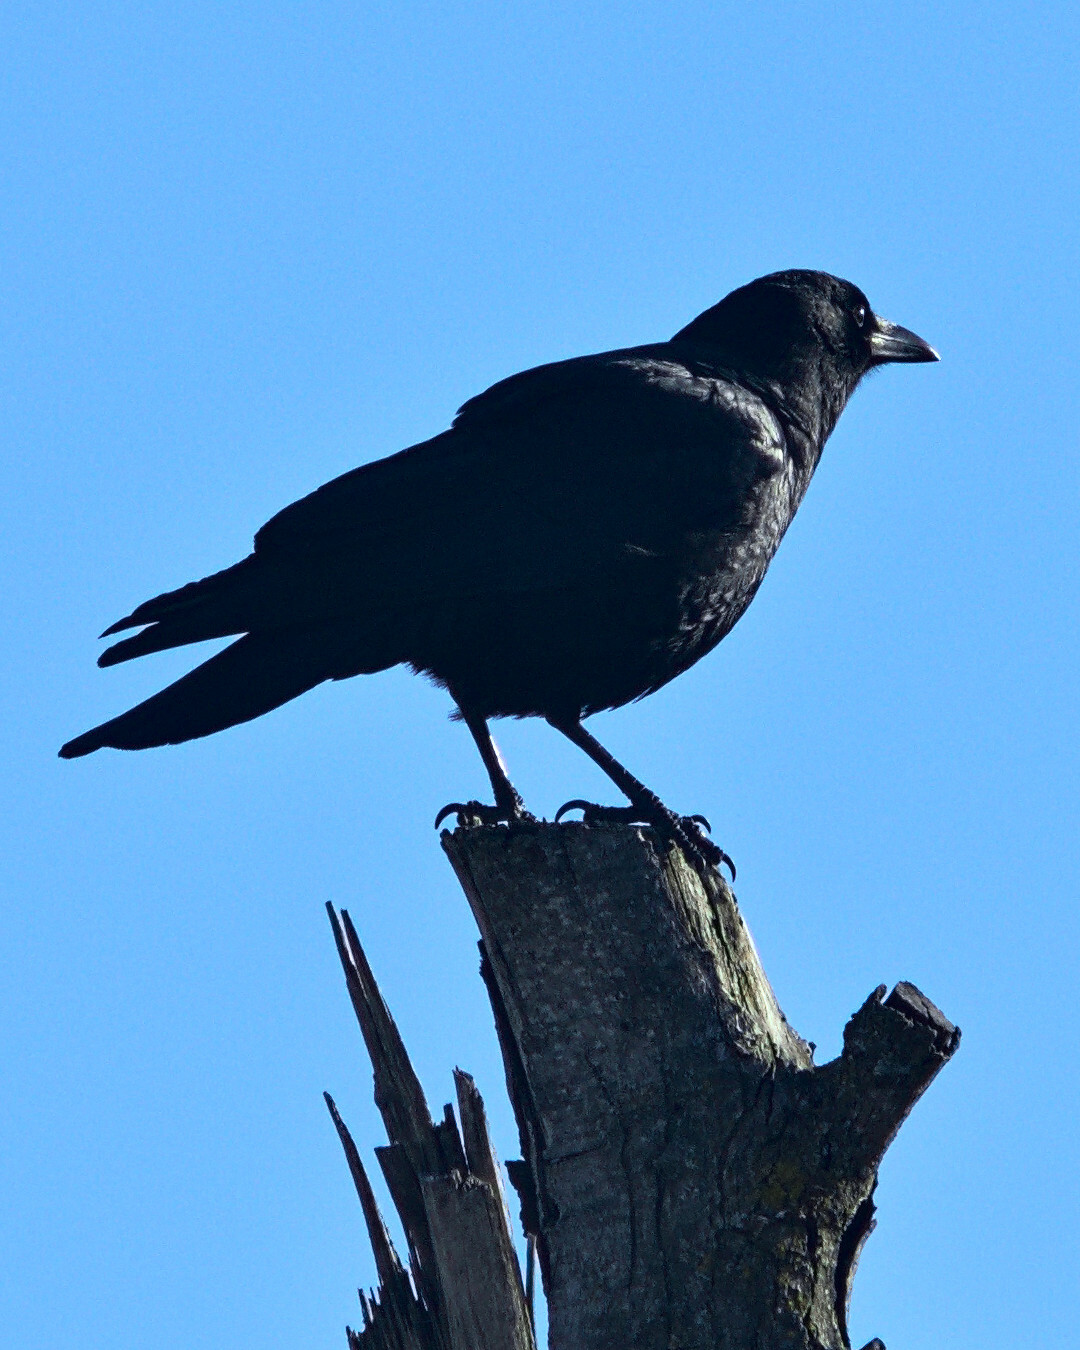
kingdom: Animalia
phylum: Chordata
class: Aves
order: Passeriformes
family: Corvidae
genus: Corvus
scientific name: Corvus brachyrhynchos
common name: American crow
